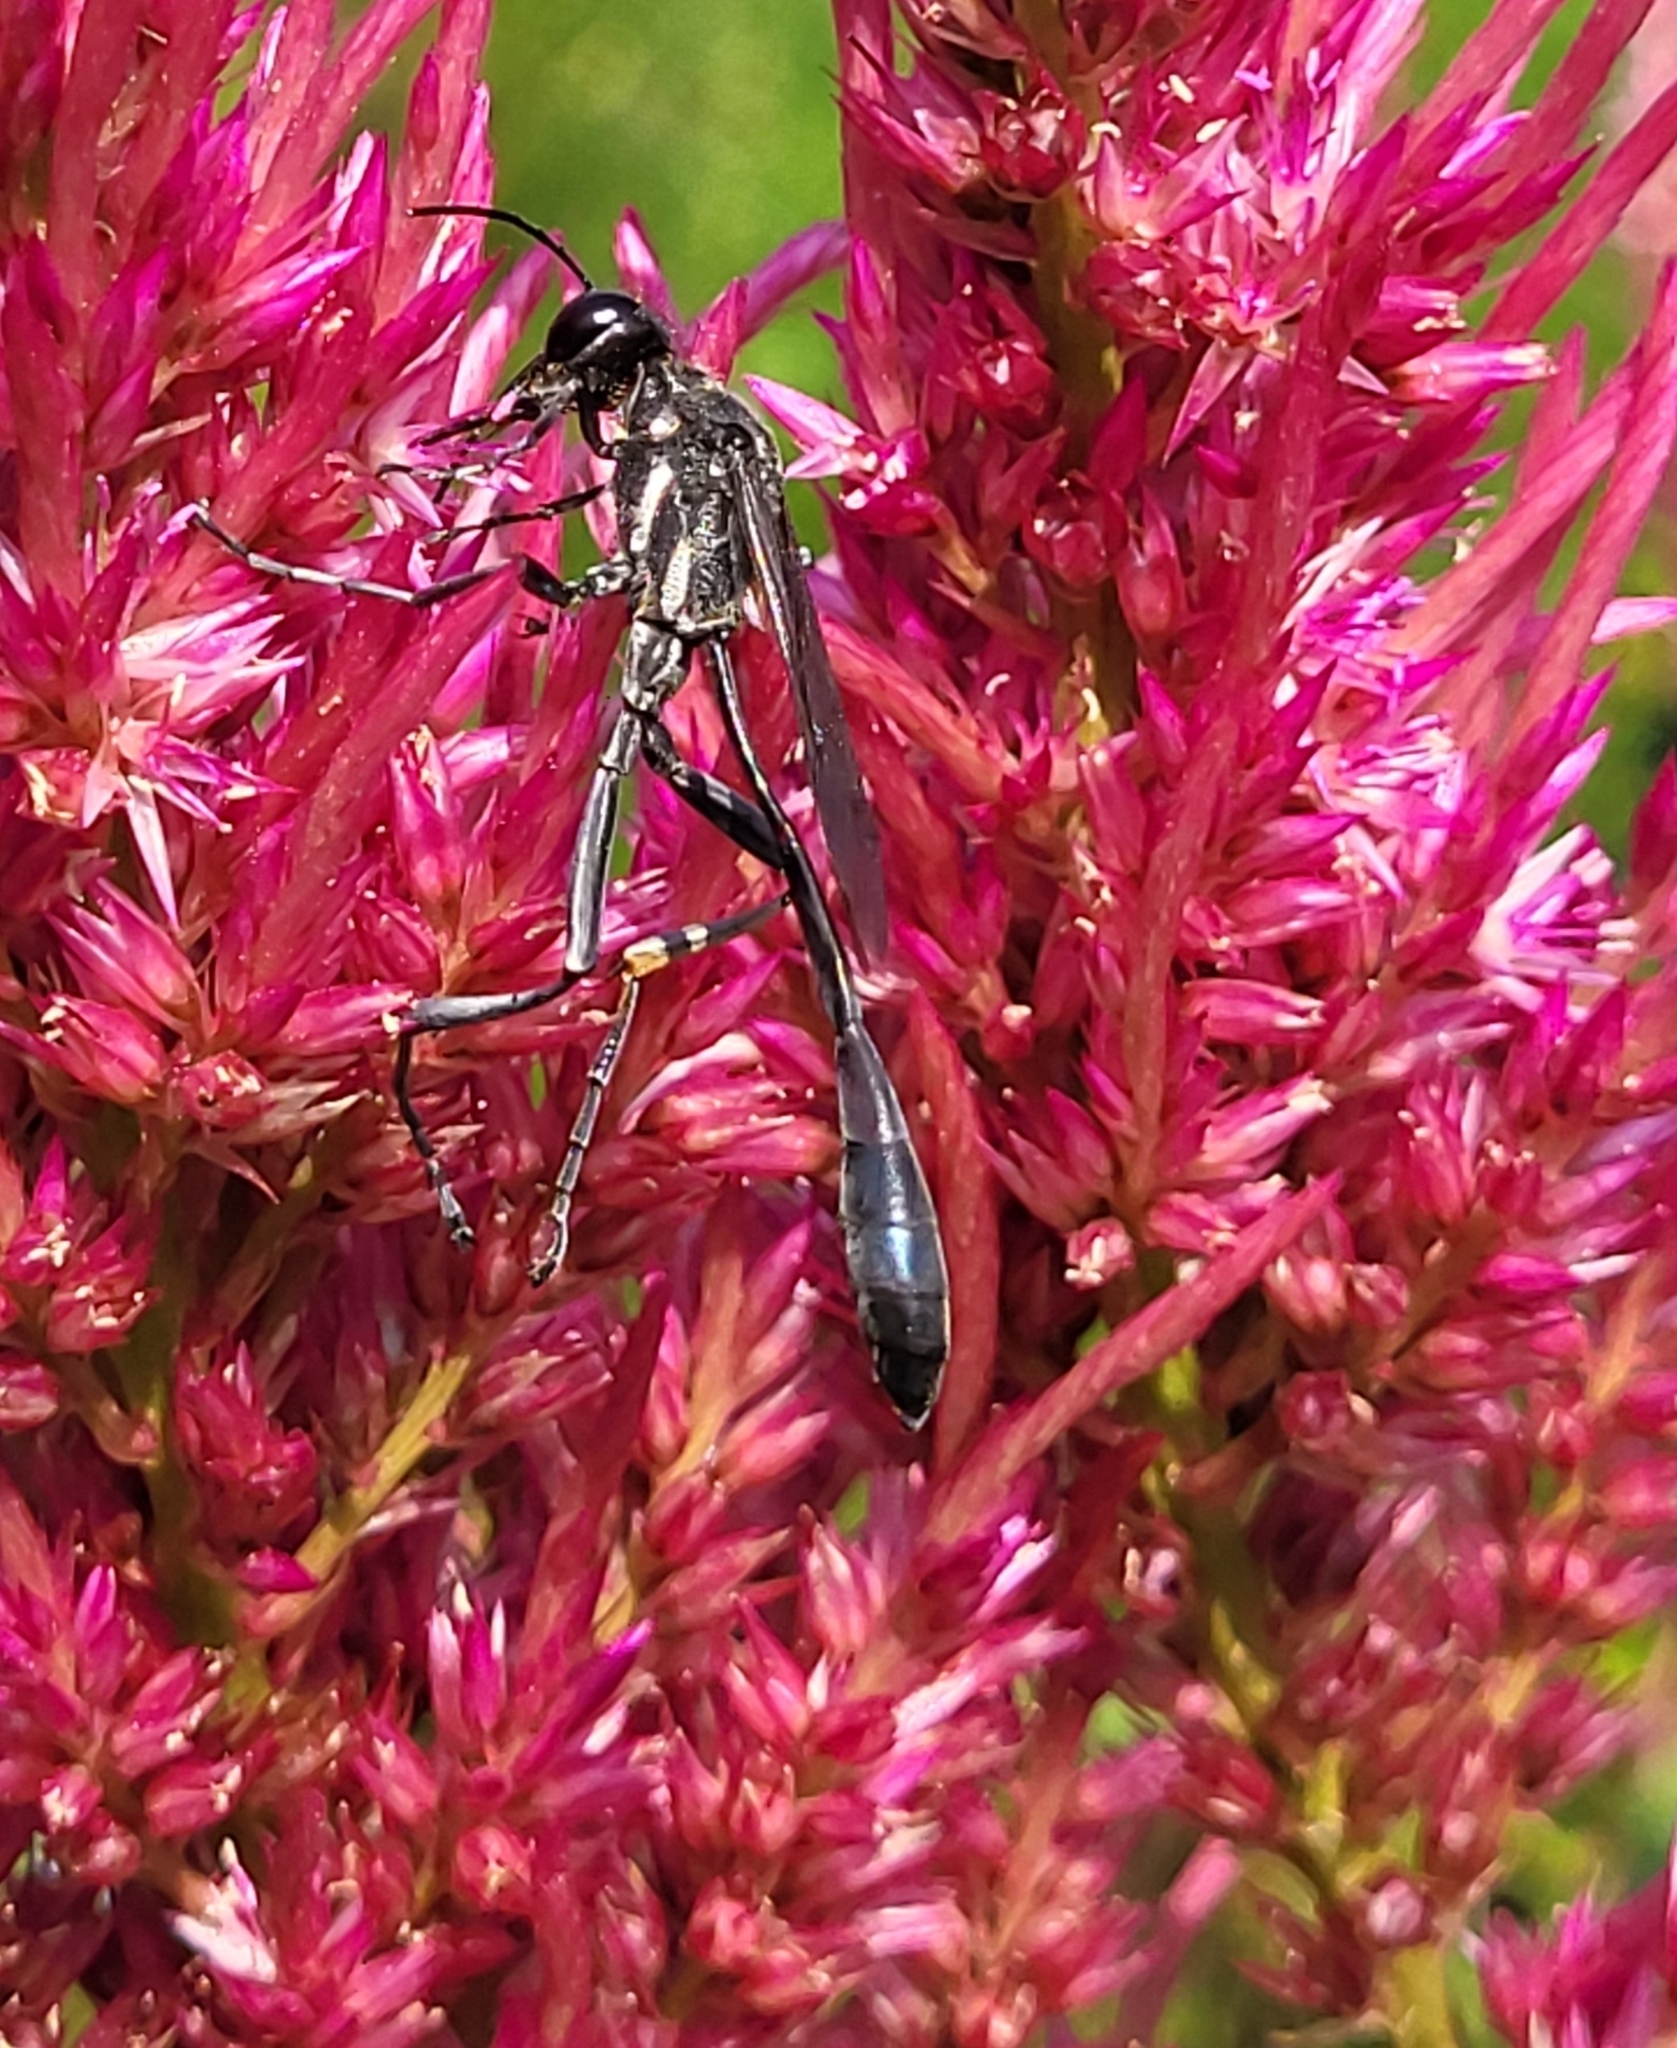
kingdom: Animalia
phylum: Arthropoda
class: Insecta
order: Hymenoptera
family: Sphecidae
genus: Ammophila
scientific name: Ammophila procera
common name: Common thread-waisted wasp
